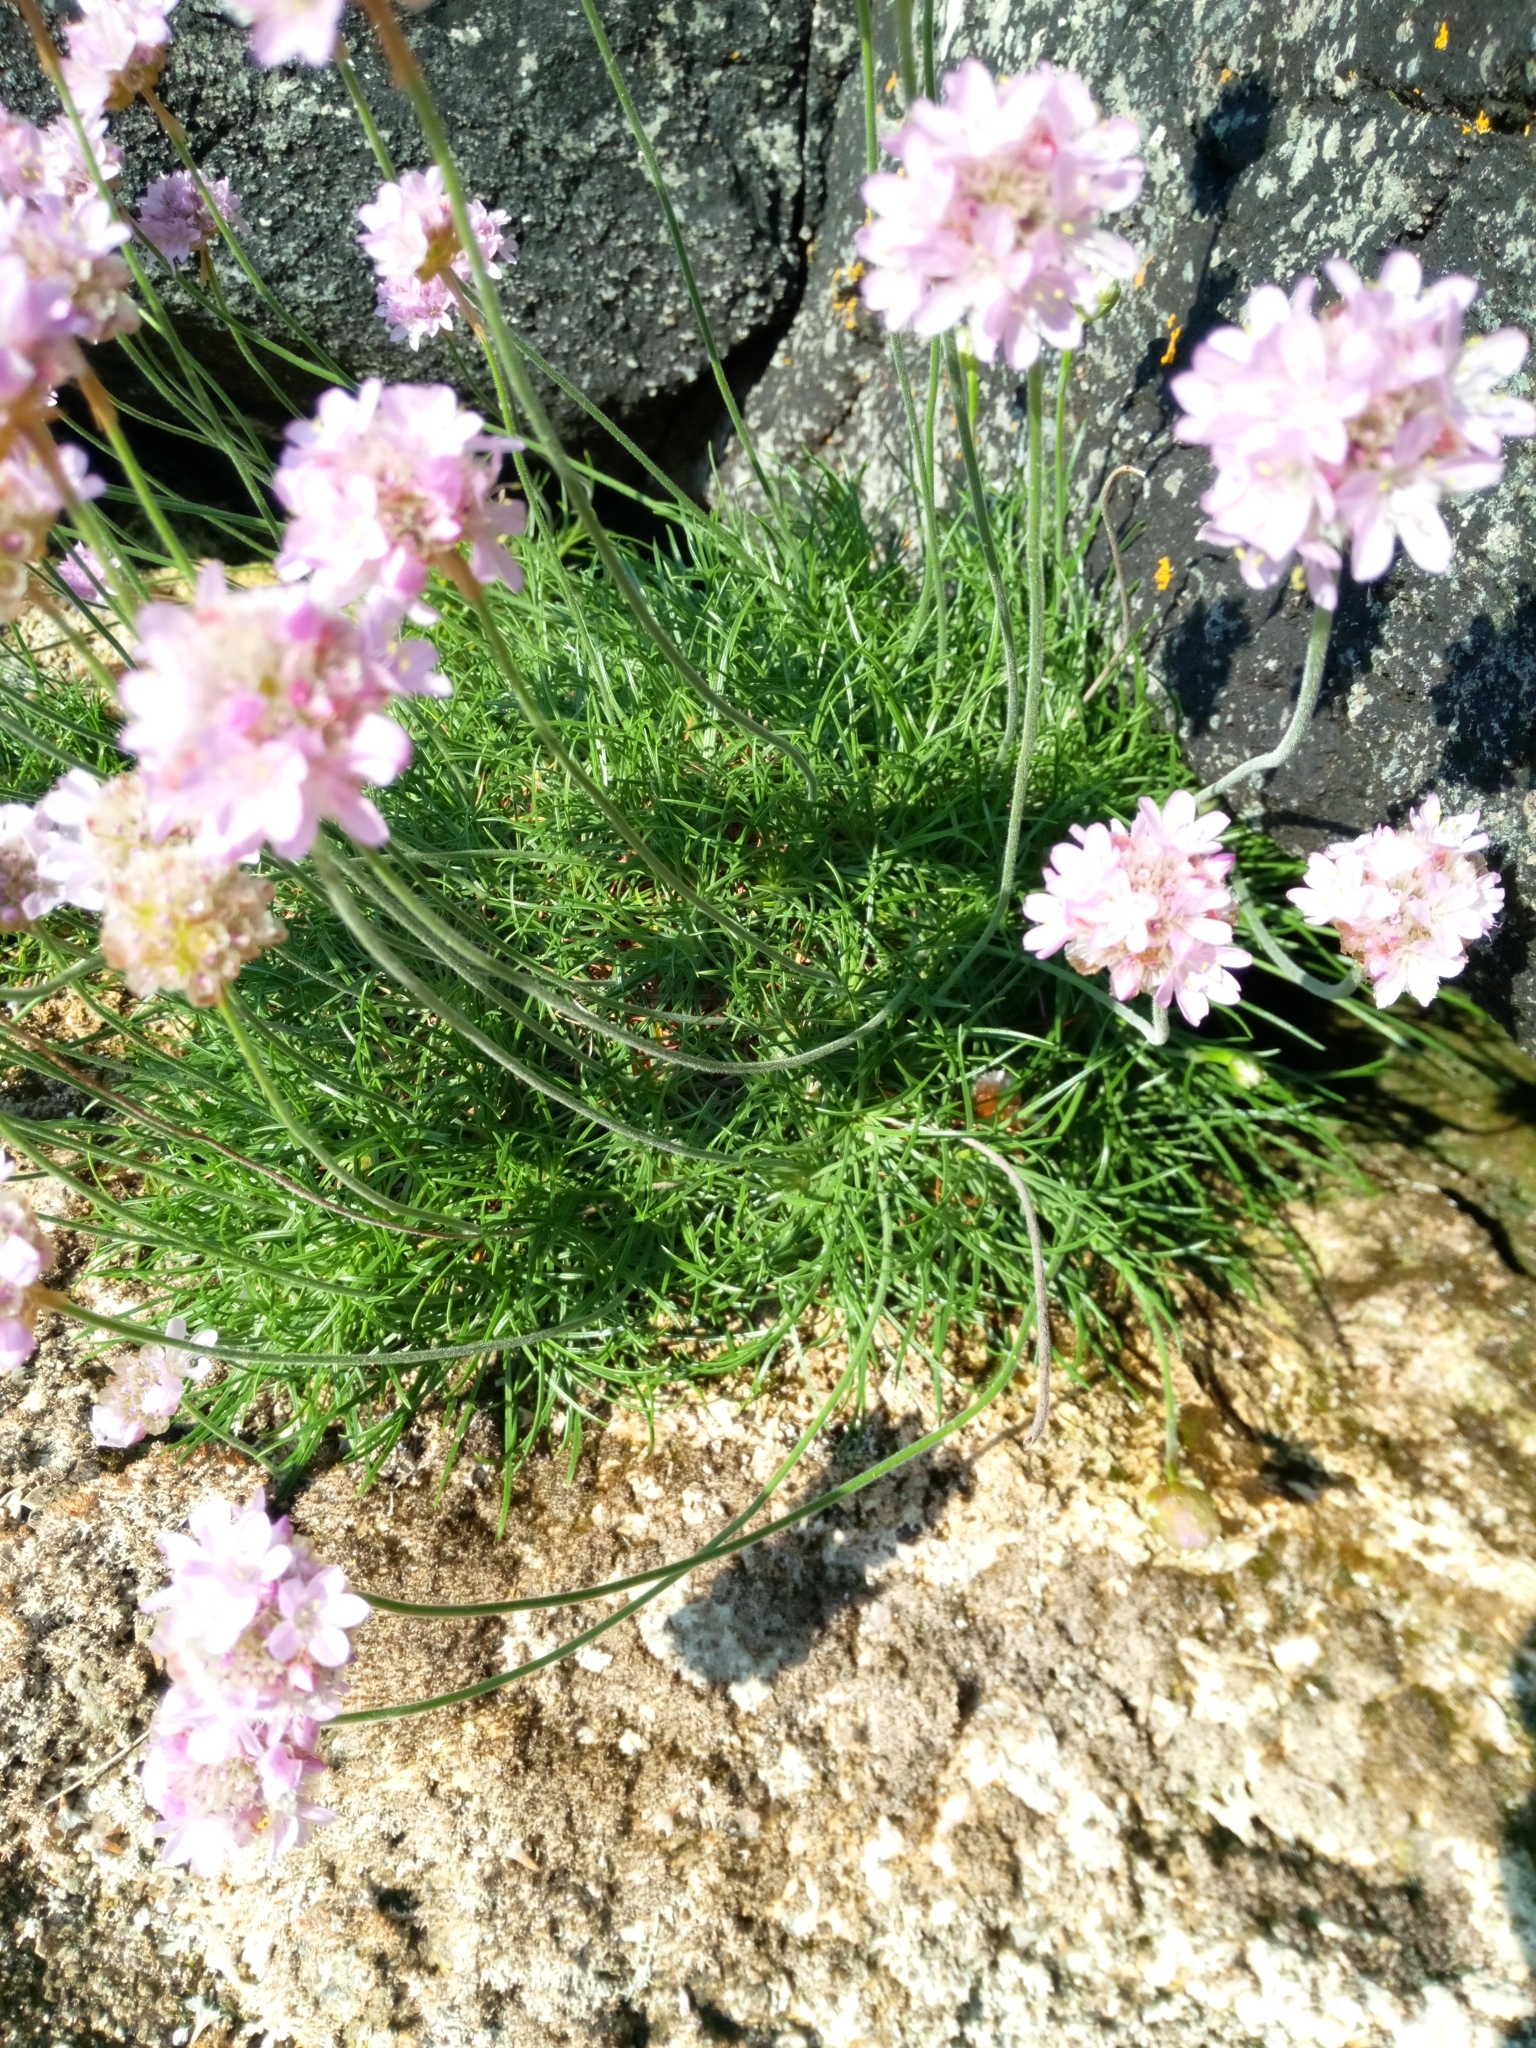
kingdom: Plantae
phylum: Tracheophyta
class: Magnoliopsida
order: Caryophyllales
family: Plumbaginaceae
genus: Armeria
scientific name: Armeria maritima
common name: Thrift
